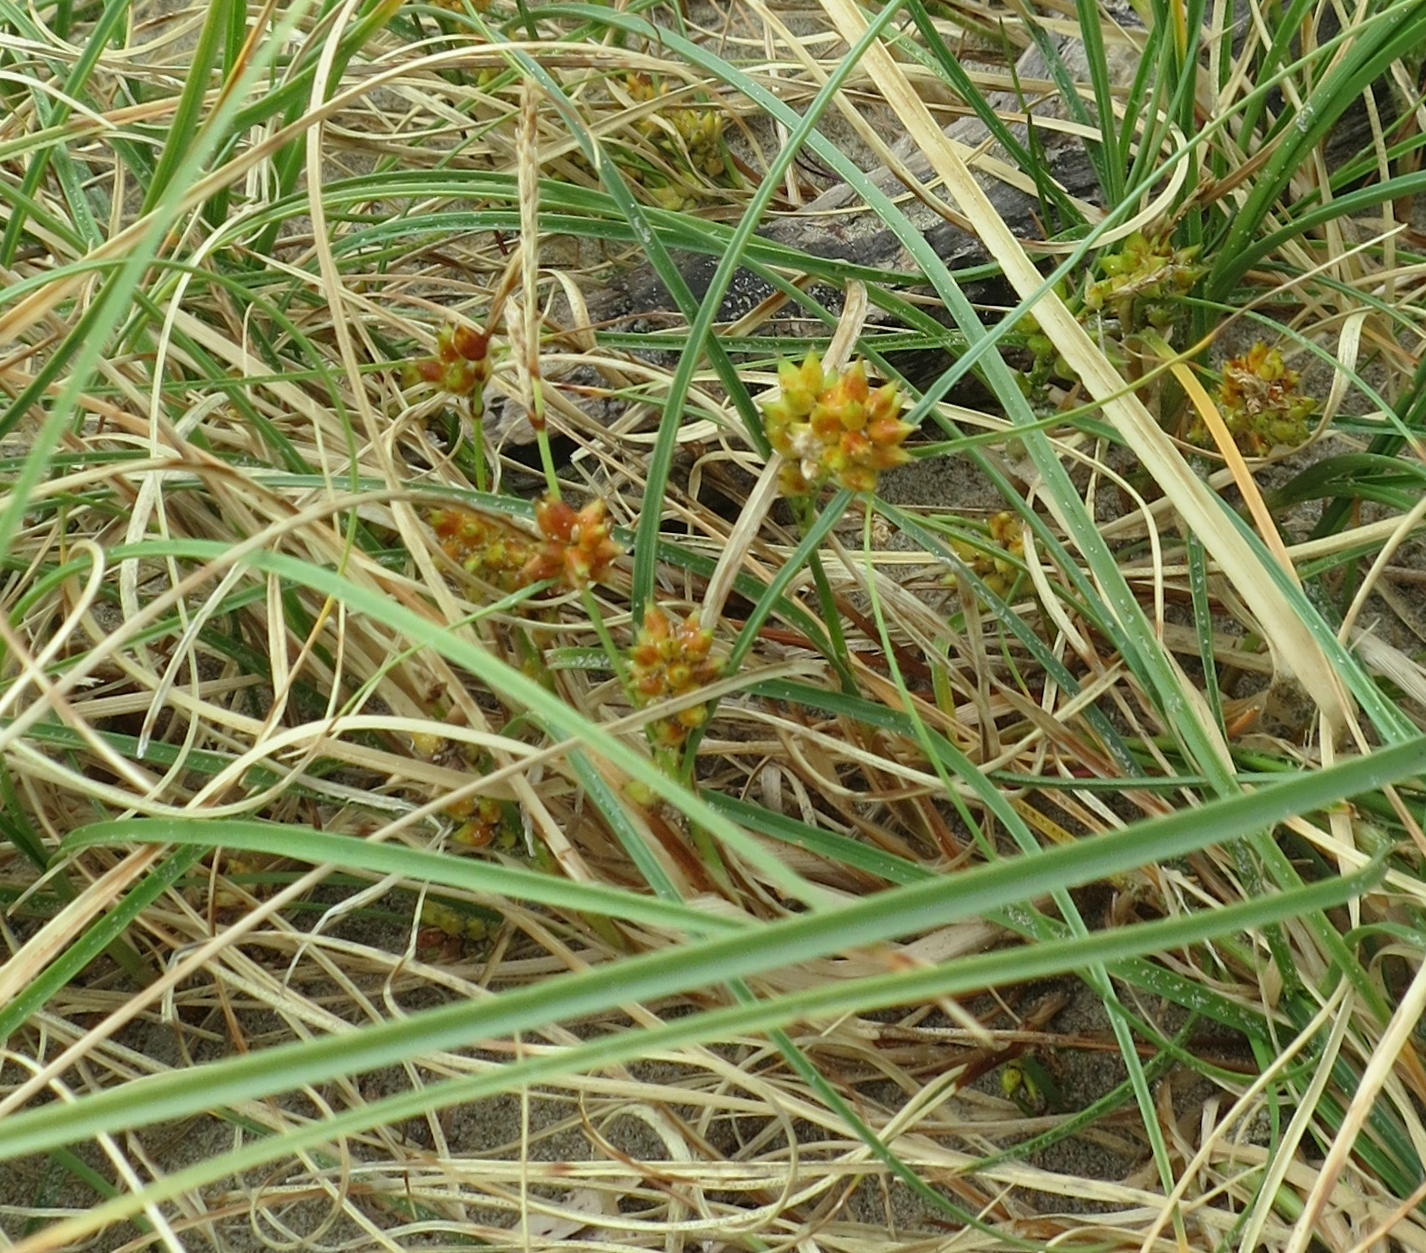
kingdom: Plantae
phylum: Tracheophyta
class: Liliopsida
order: Poales
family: Cyperaceae
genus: Carex
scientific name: Carex pumila
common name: Dwarf sedge
